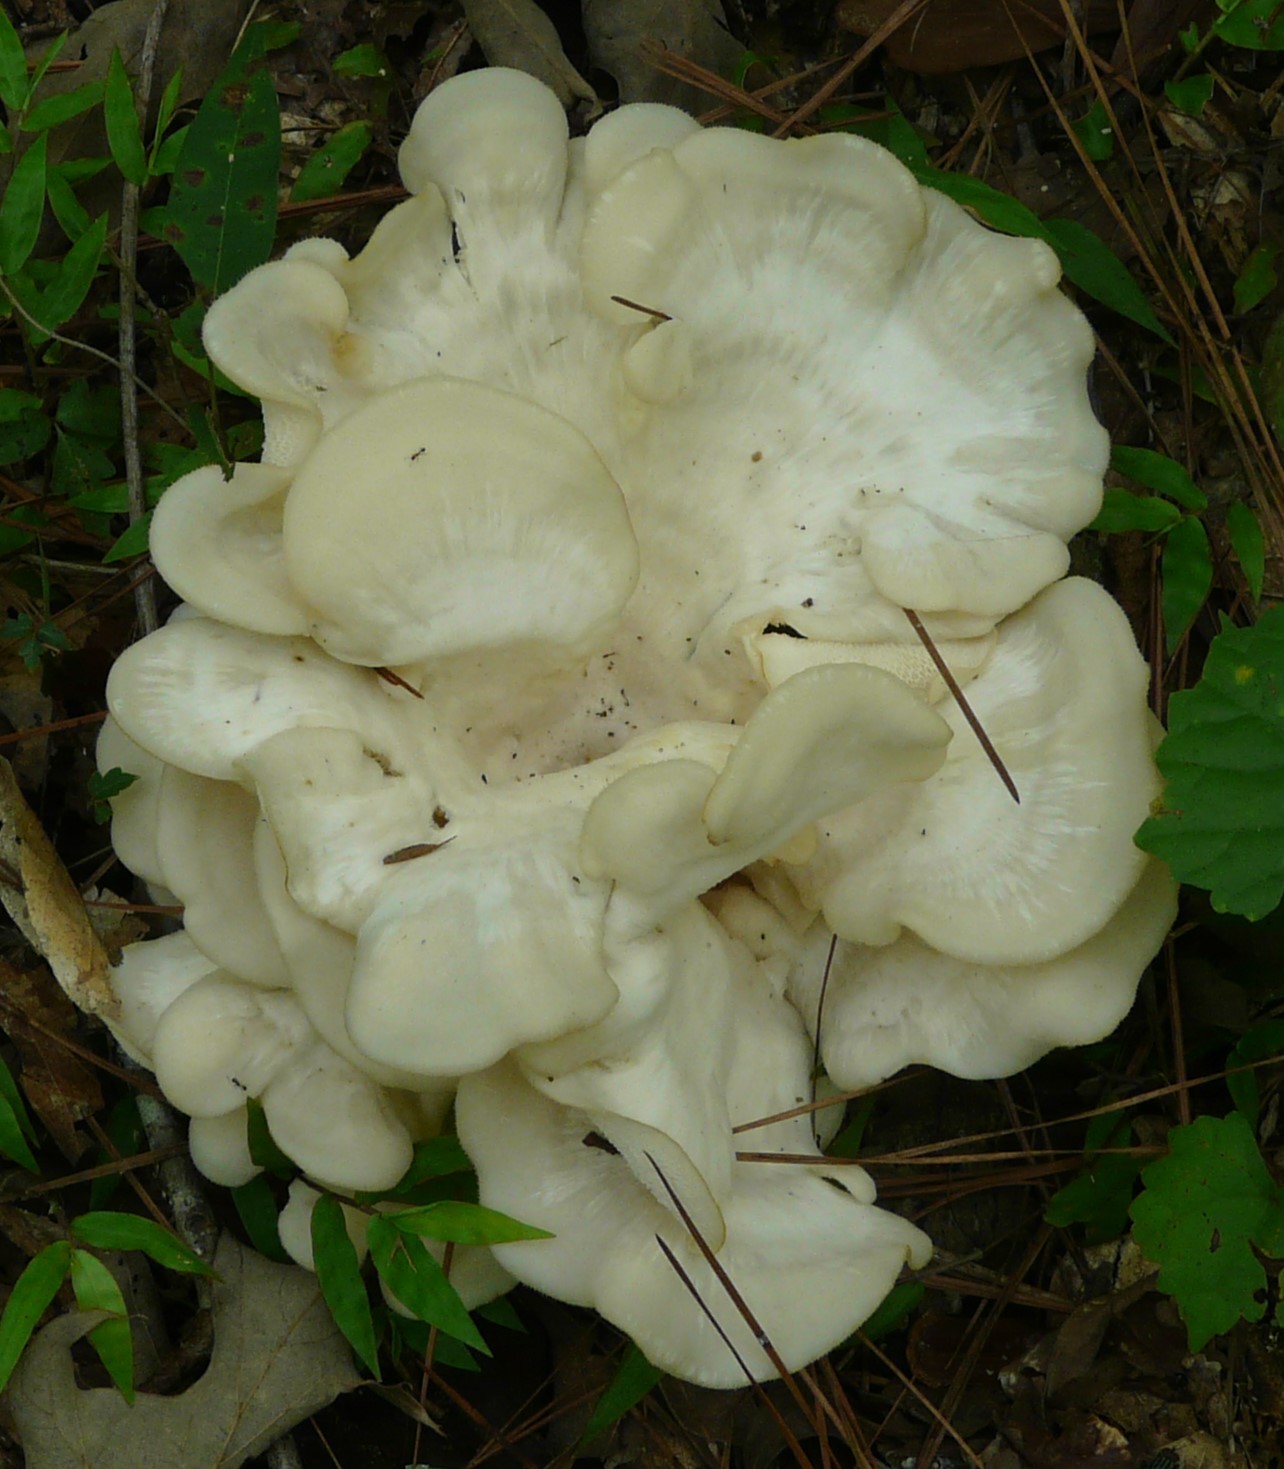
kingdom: Fungi
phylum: Basidiomycota
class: Agaricomycetes
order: Polyporales
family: Polyporaceae
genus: Favolus
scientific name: Favolus tenuiculus
